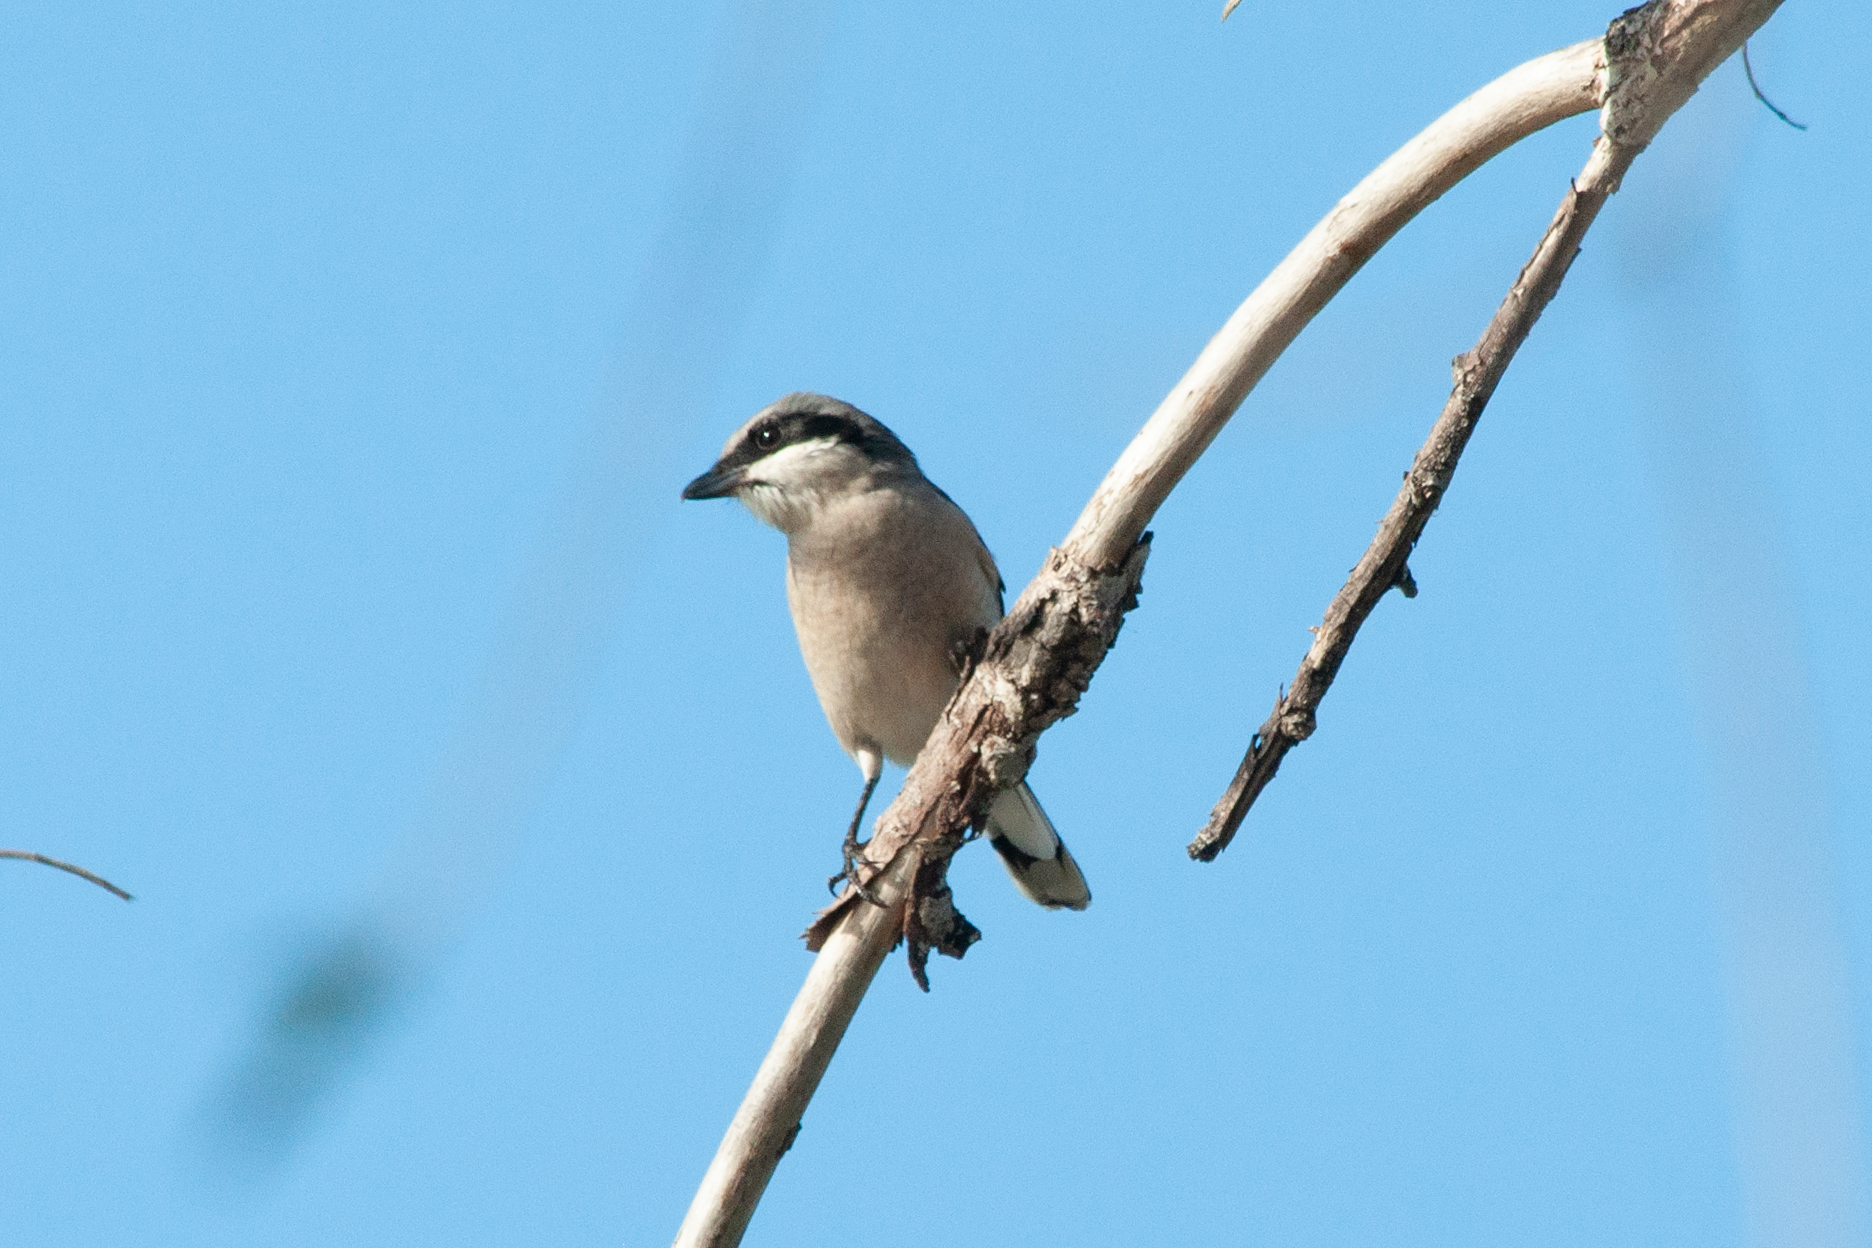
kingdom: Animalia
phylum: Chordata
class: Aves
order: Passeriformes
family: Laniidae
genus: Lanius
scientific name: Lanius ludovicianus
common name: Loggerhead shrike
